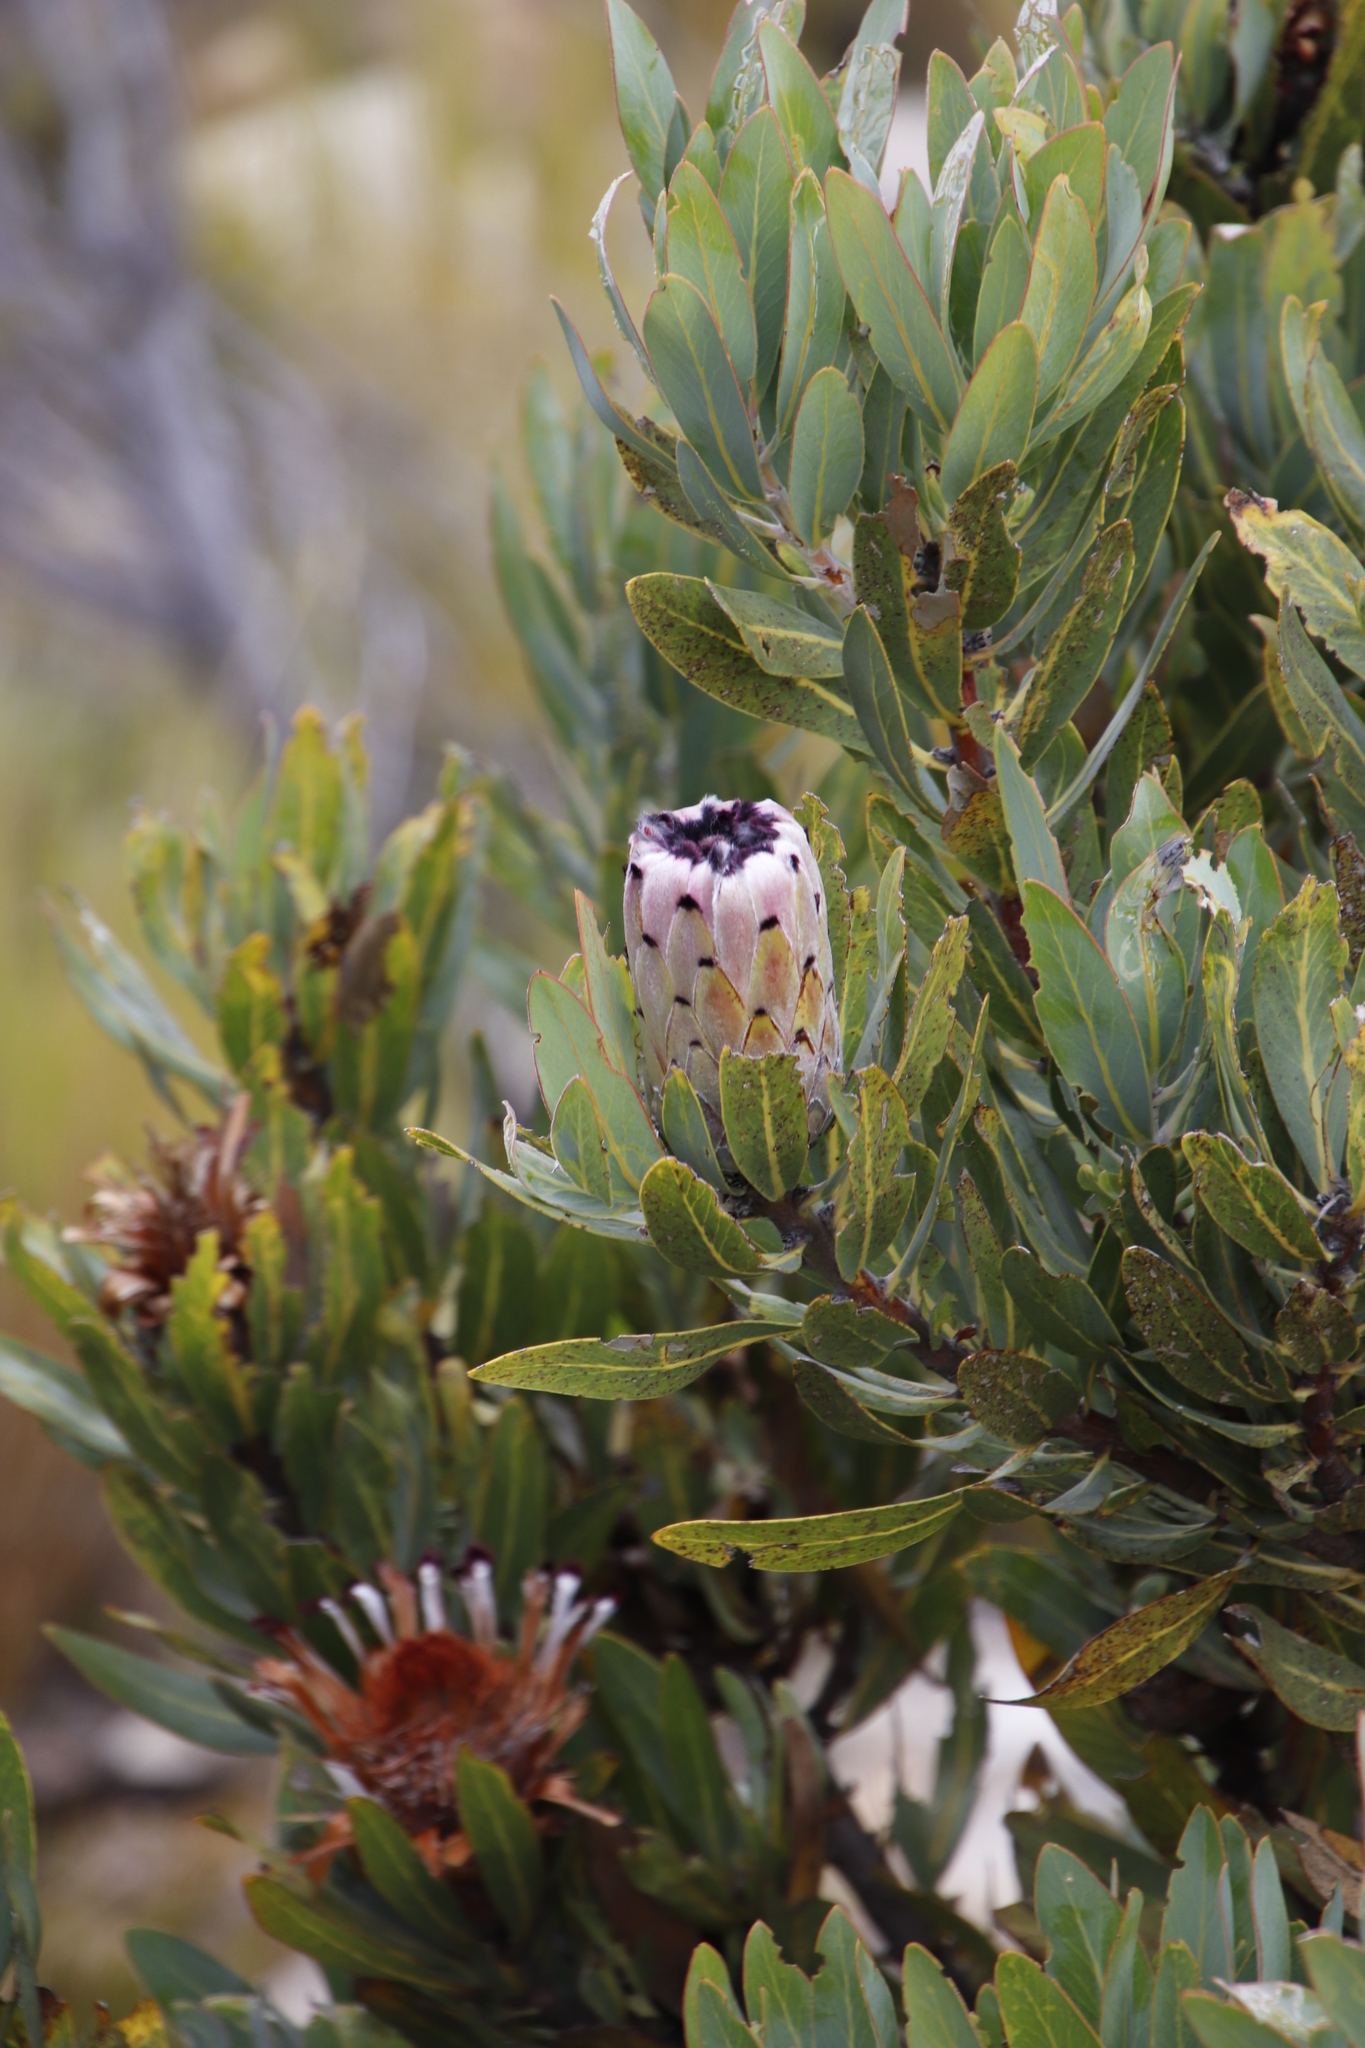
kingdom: Plantae
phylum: Tracheophyta
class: Magnoliopsida
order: Proteales
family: Proteaceae
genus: Protea
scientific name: Protea laurifolia
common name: Grey-leaf sugarbsh
